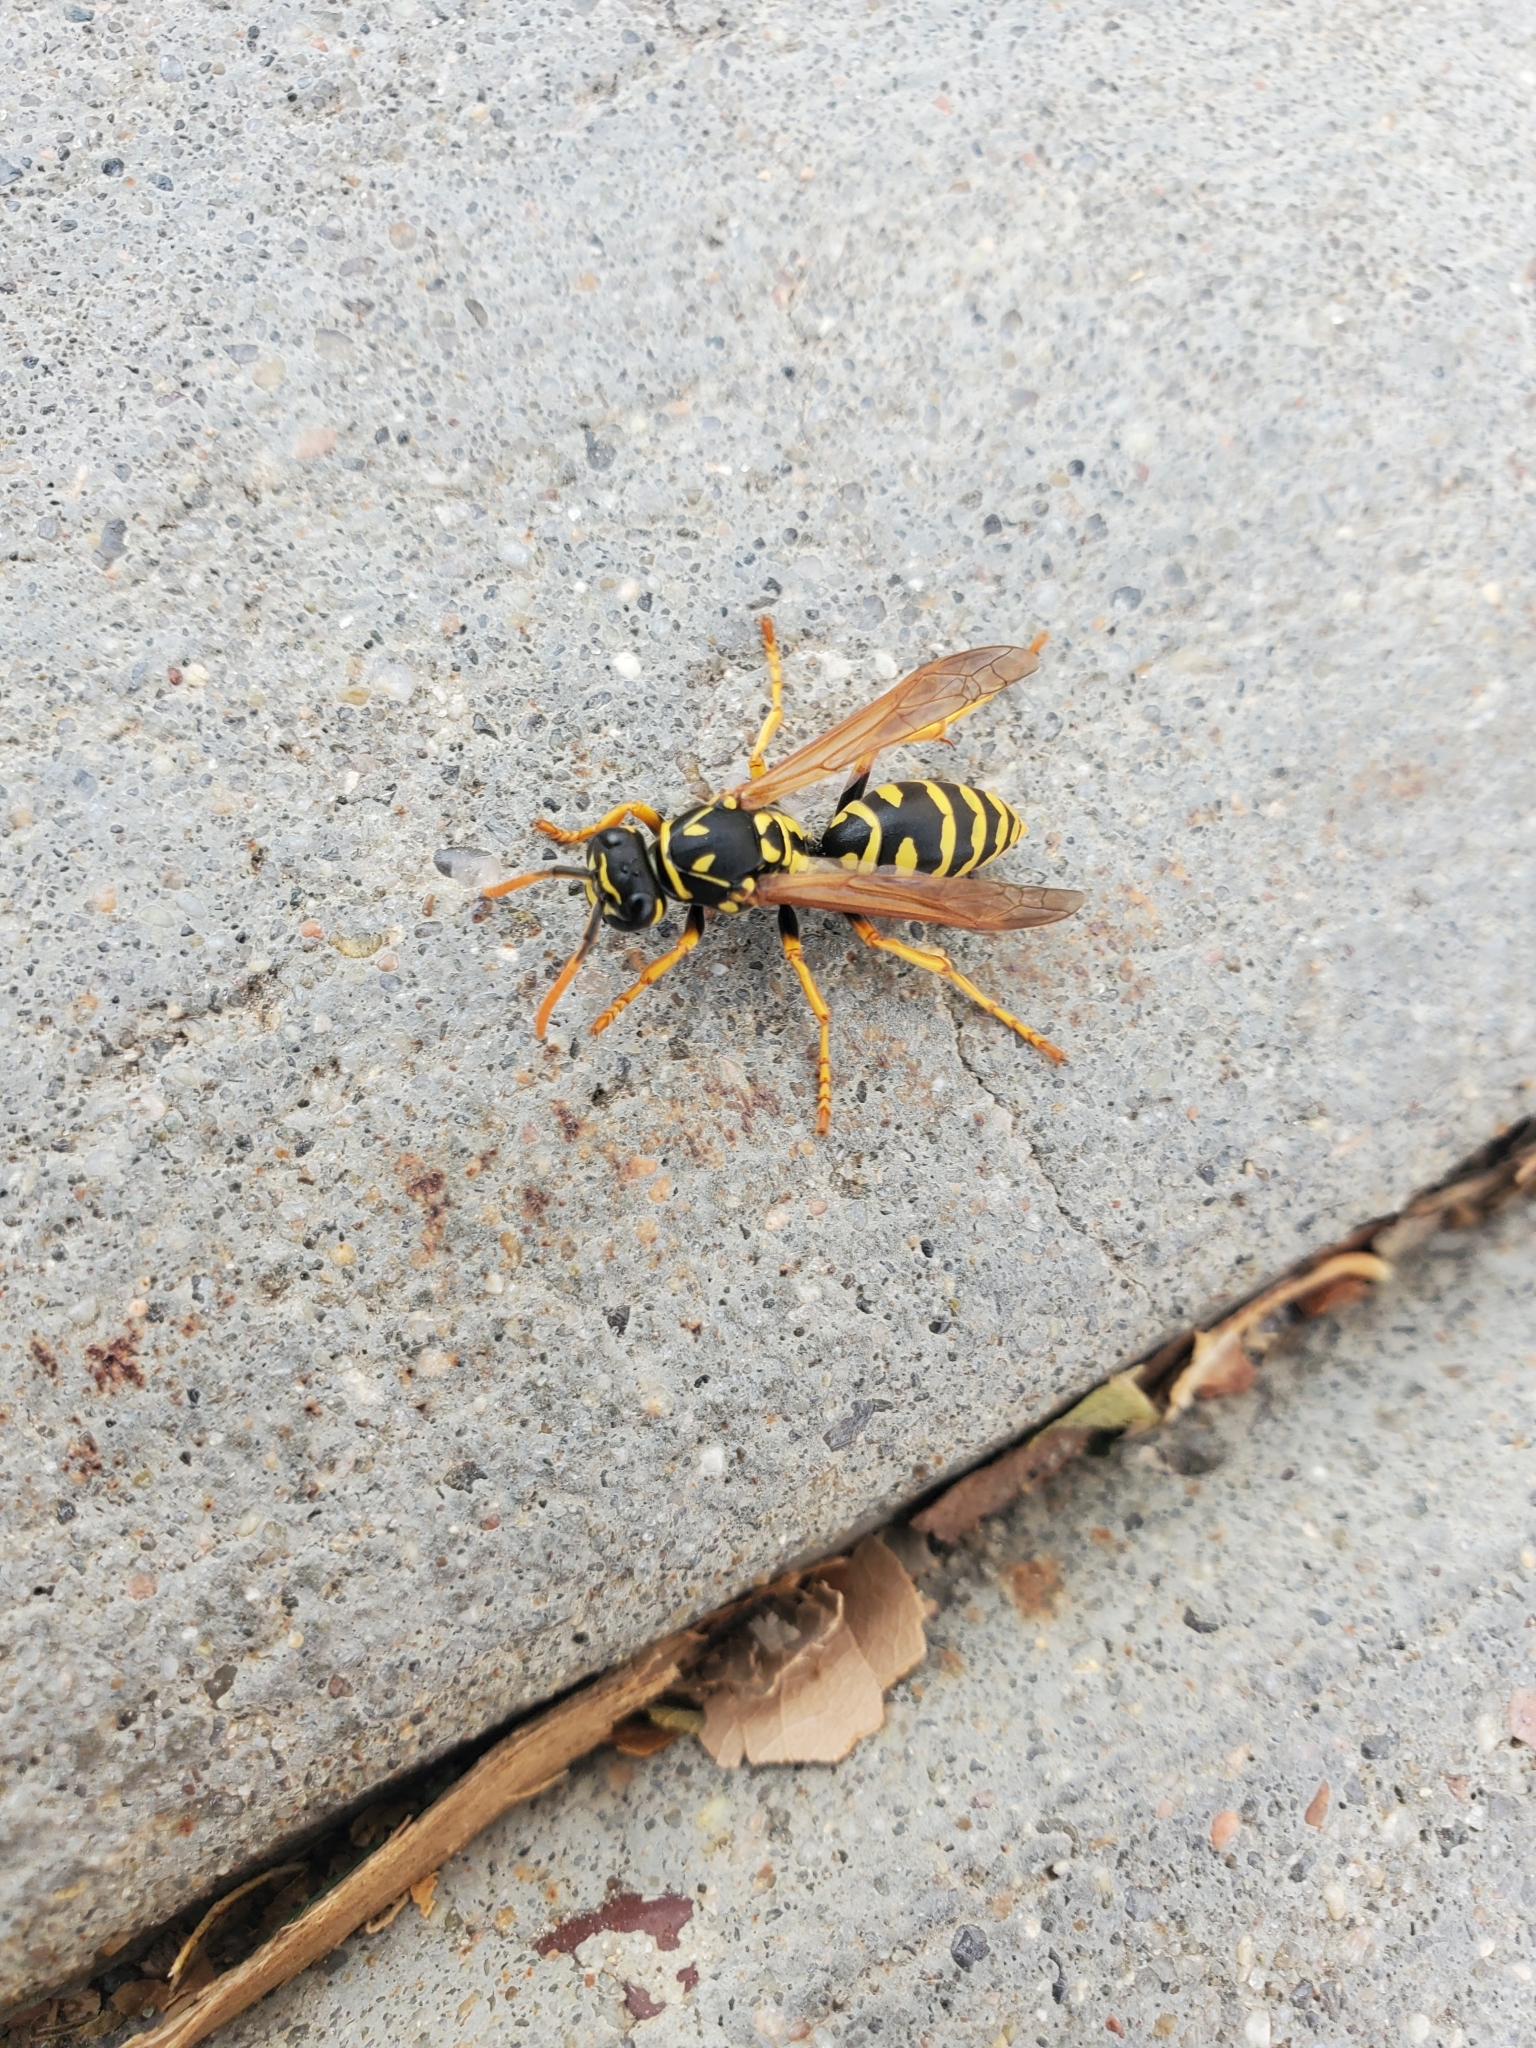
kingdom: Animalia
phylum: Arthropoda
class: Insecta
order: Hymenoptera
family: Eumenidae
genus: Polistes
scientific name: Polistes dominula
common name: Paper wasp
